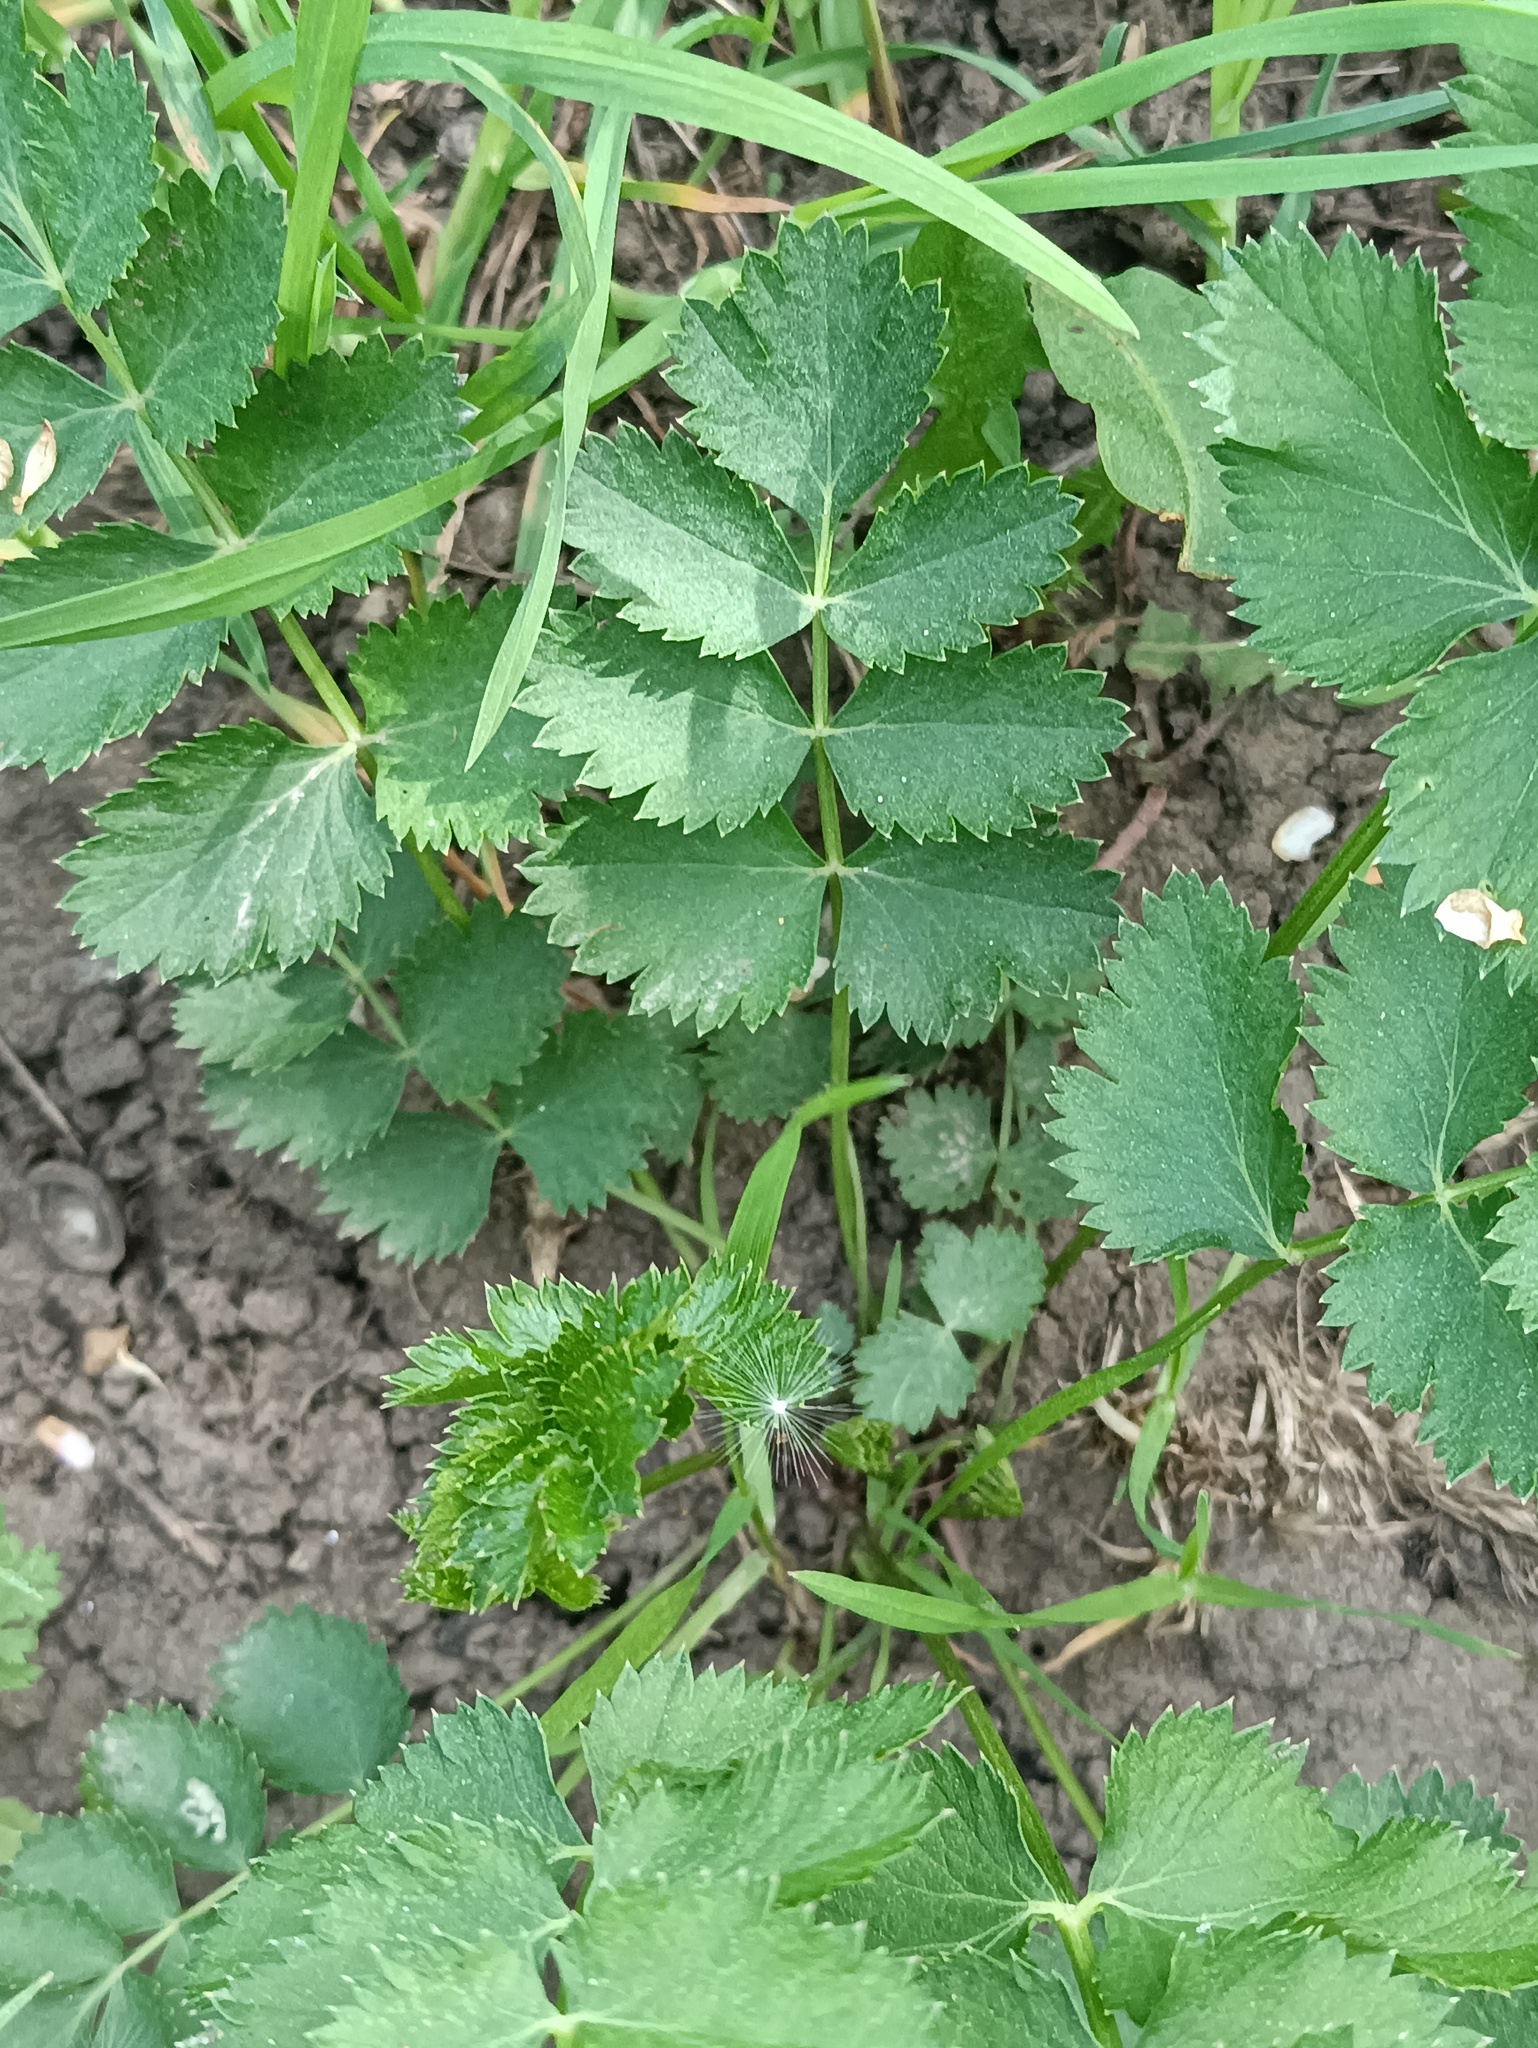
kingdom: Plantae
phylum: Tracheophyta
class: Magnoliopsida
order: Apiales
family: Apiaceae
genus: Pimpinella
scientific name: Pimpinella saxifraga
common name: Burnet-saxifrage
